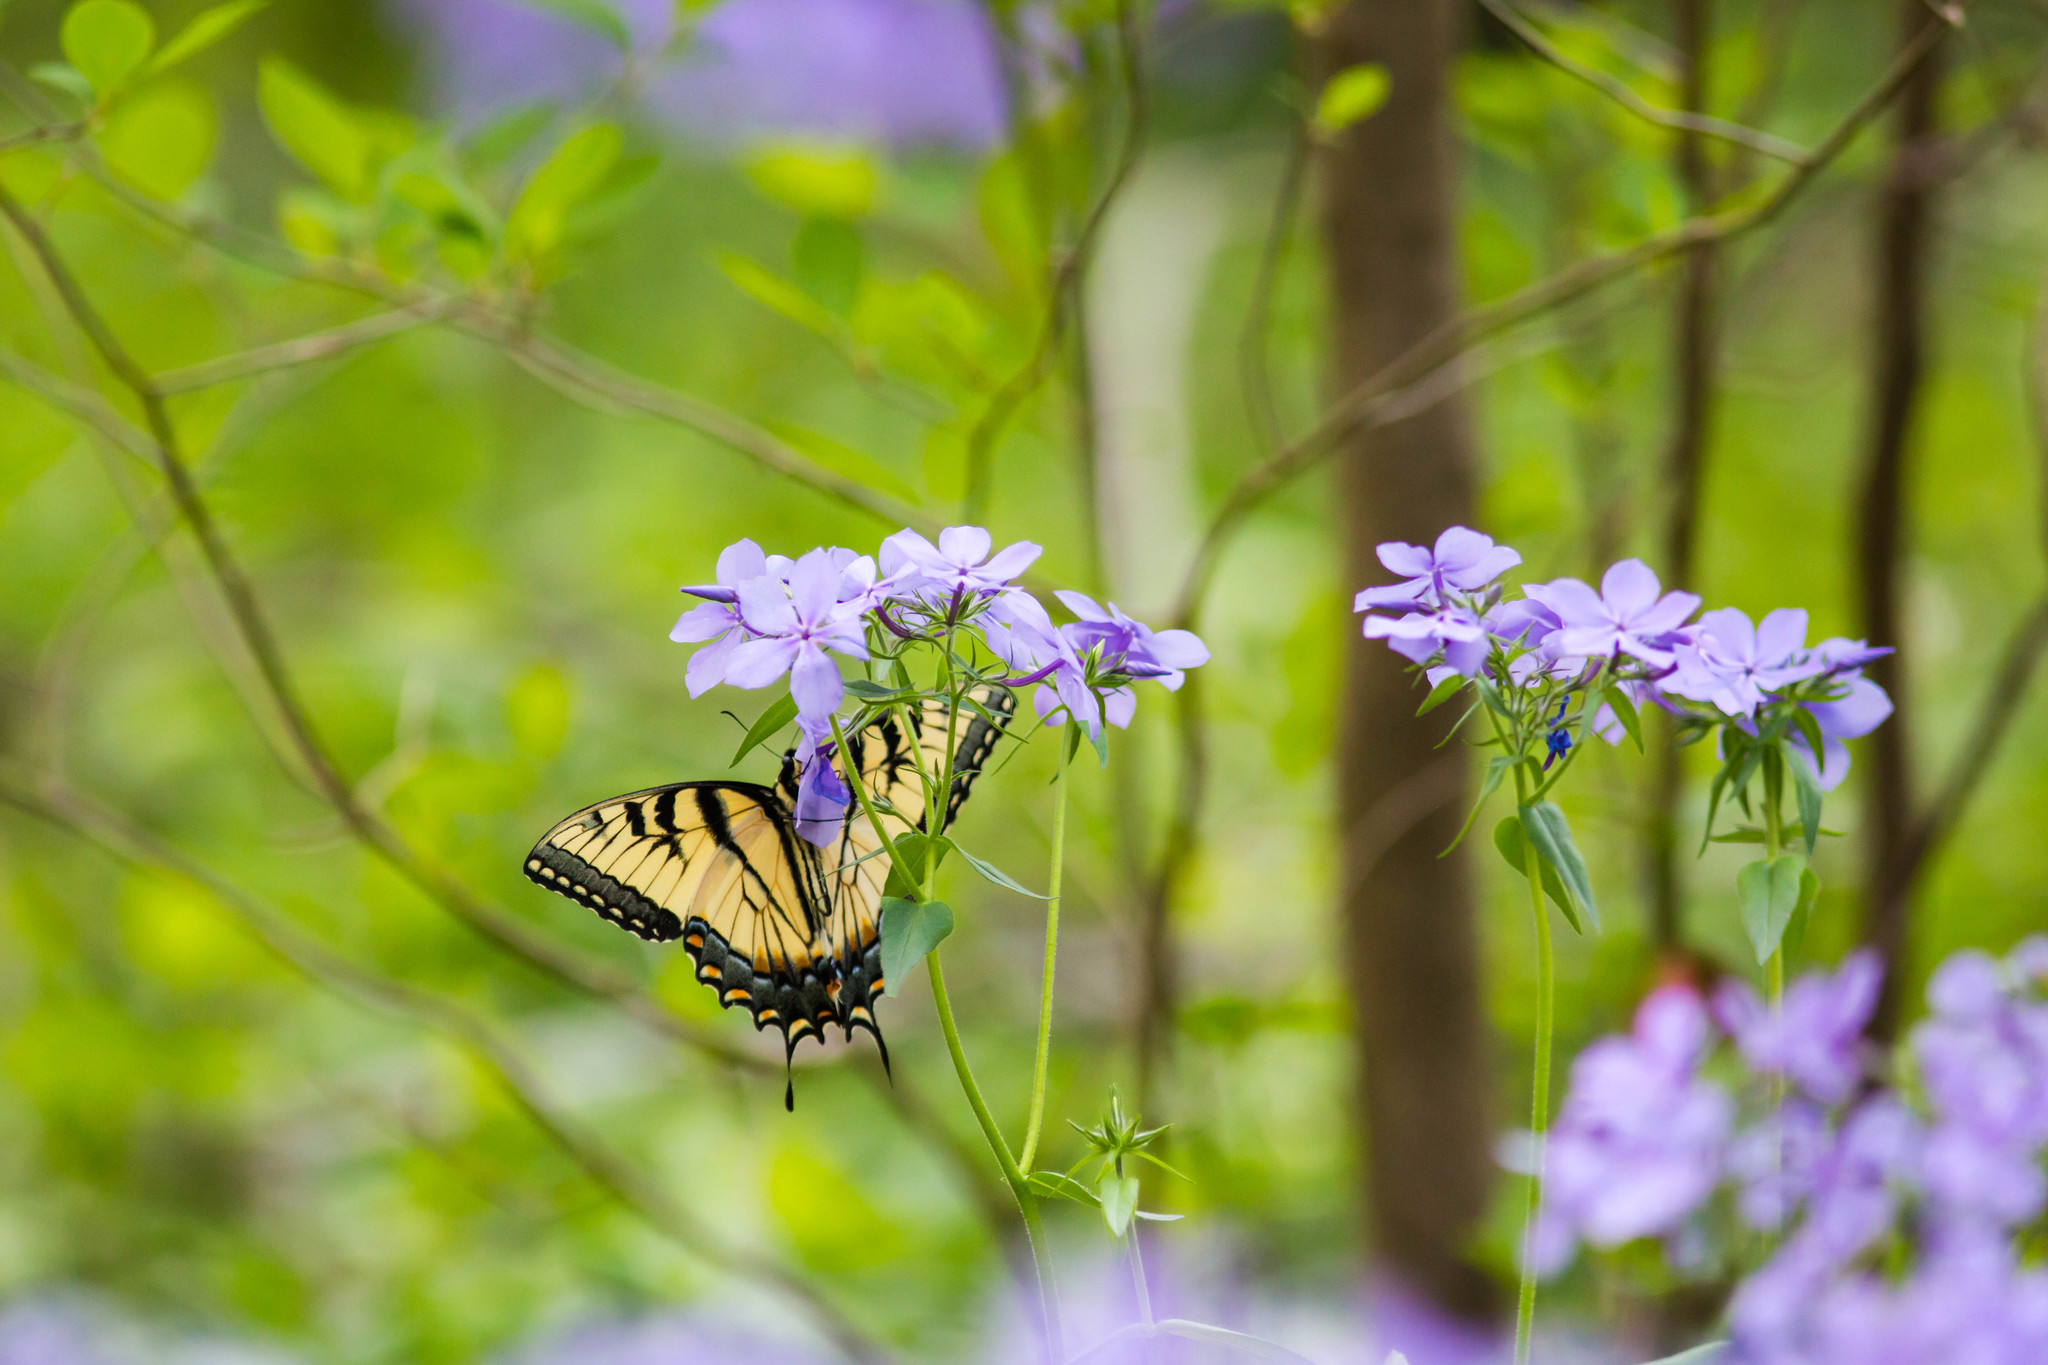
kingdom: Animalia
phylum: Arthropoda
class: Insecta
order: Lepidoptera
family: Papilionidae
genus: Papilio
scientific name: Papilio glaucus
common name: Tiger swallowtail
